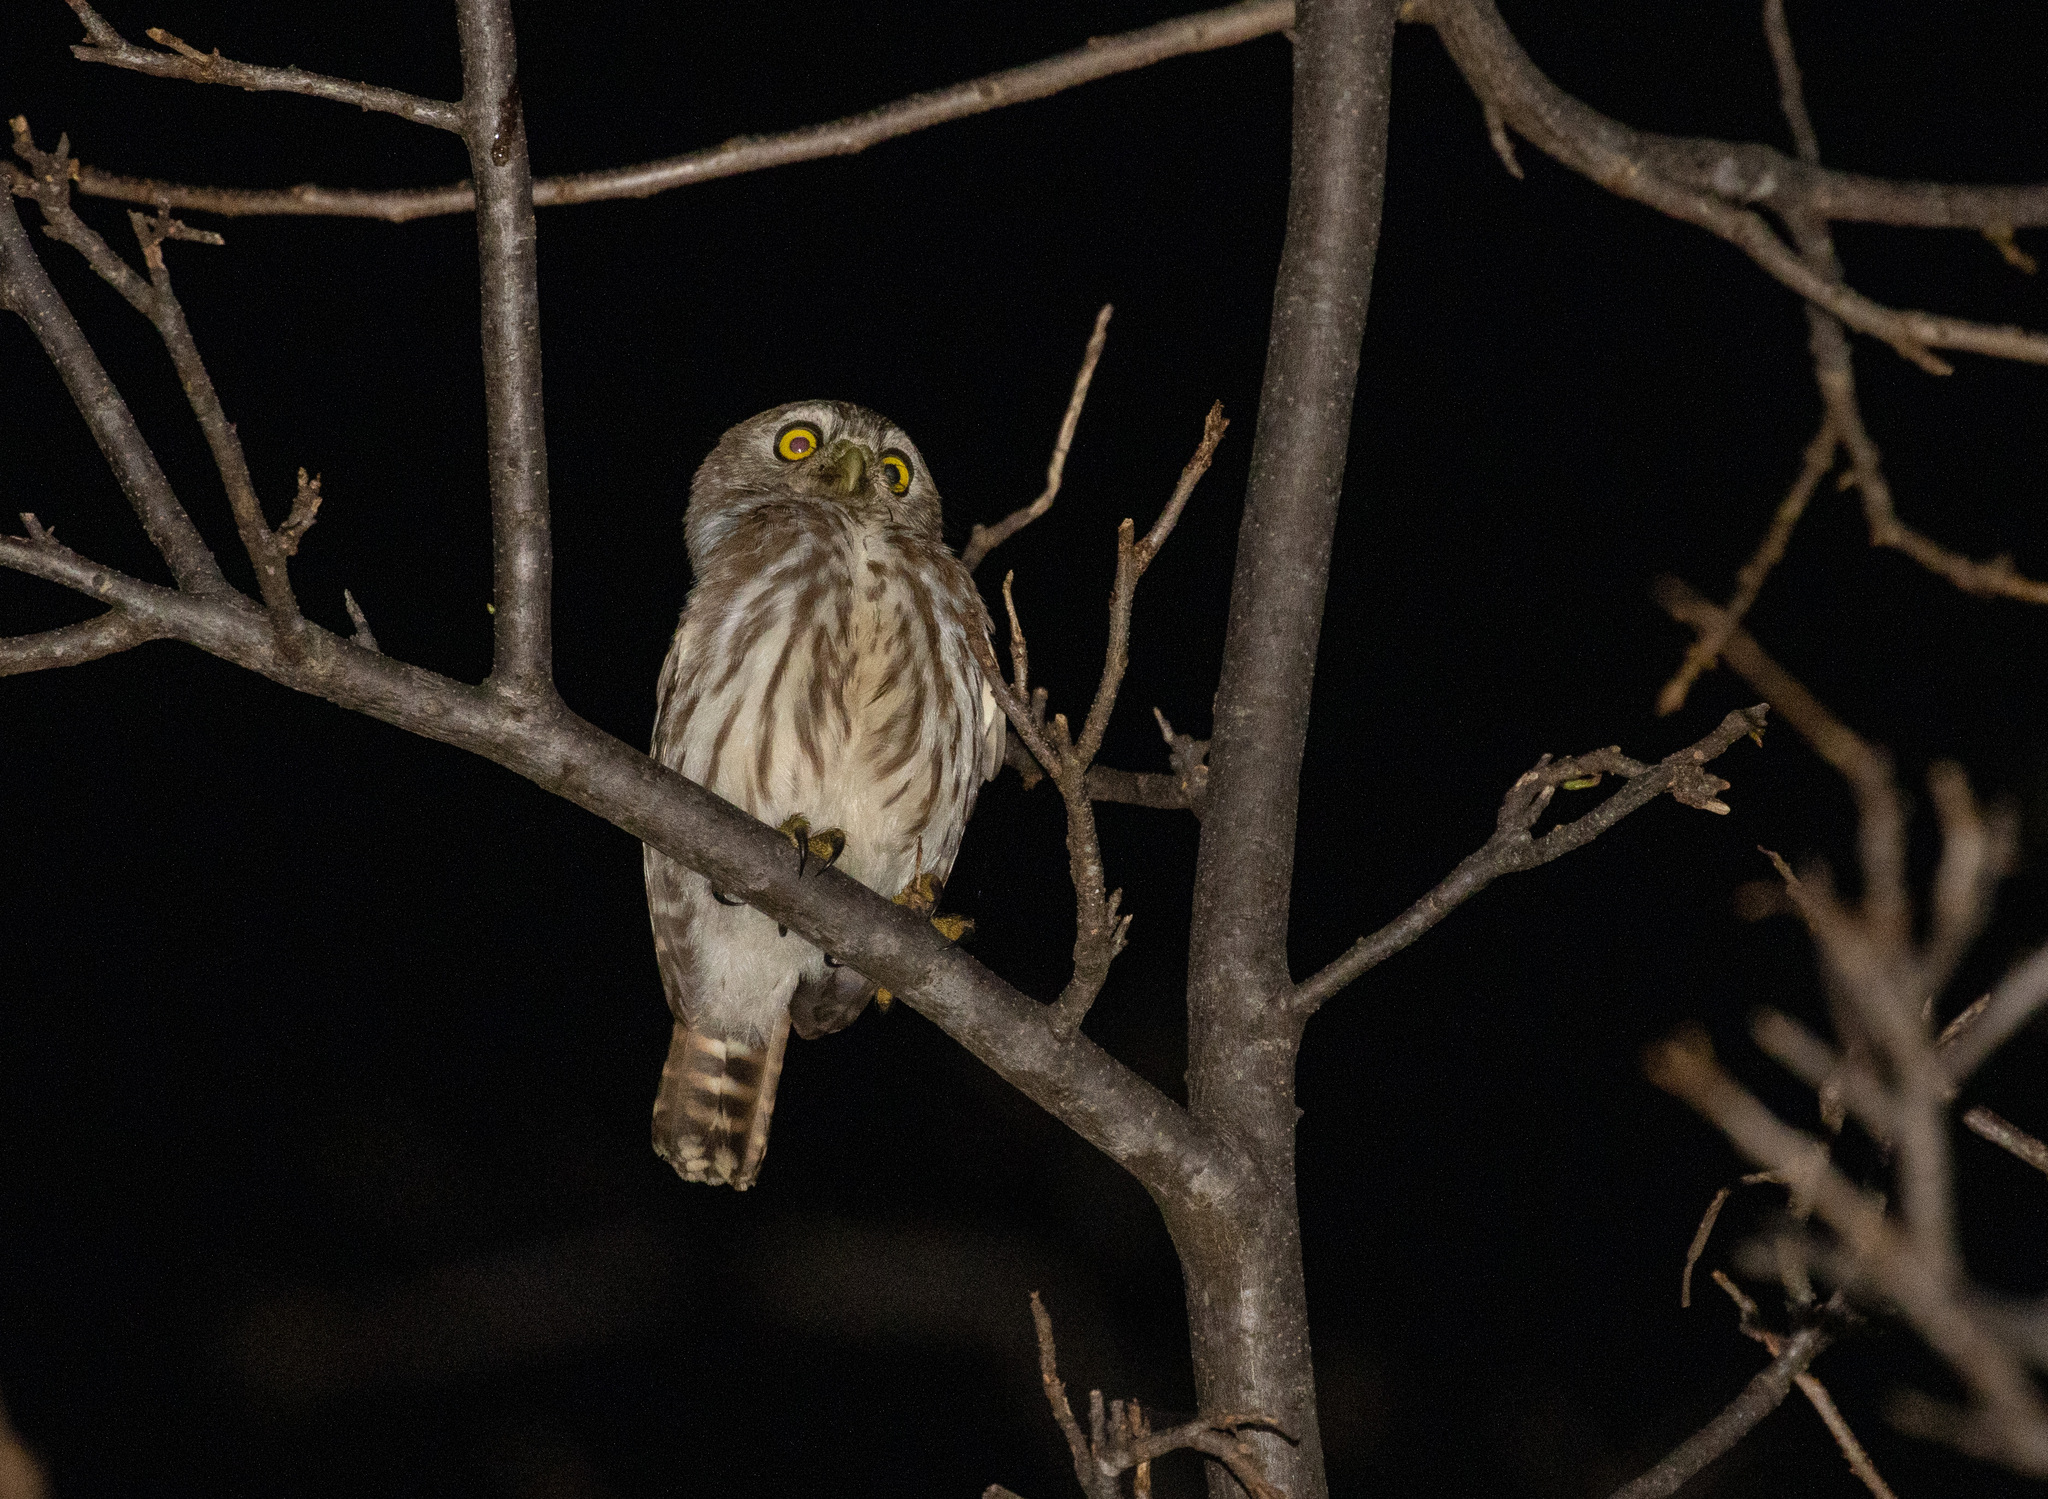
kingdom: Animalia
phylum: Chordata
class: Aves
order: Strigiformes
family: Strigidae
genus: Glaucidium
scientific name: Glaucidium brasilianum
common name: Ferruginous pygmy-owl
